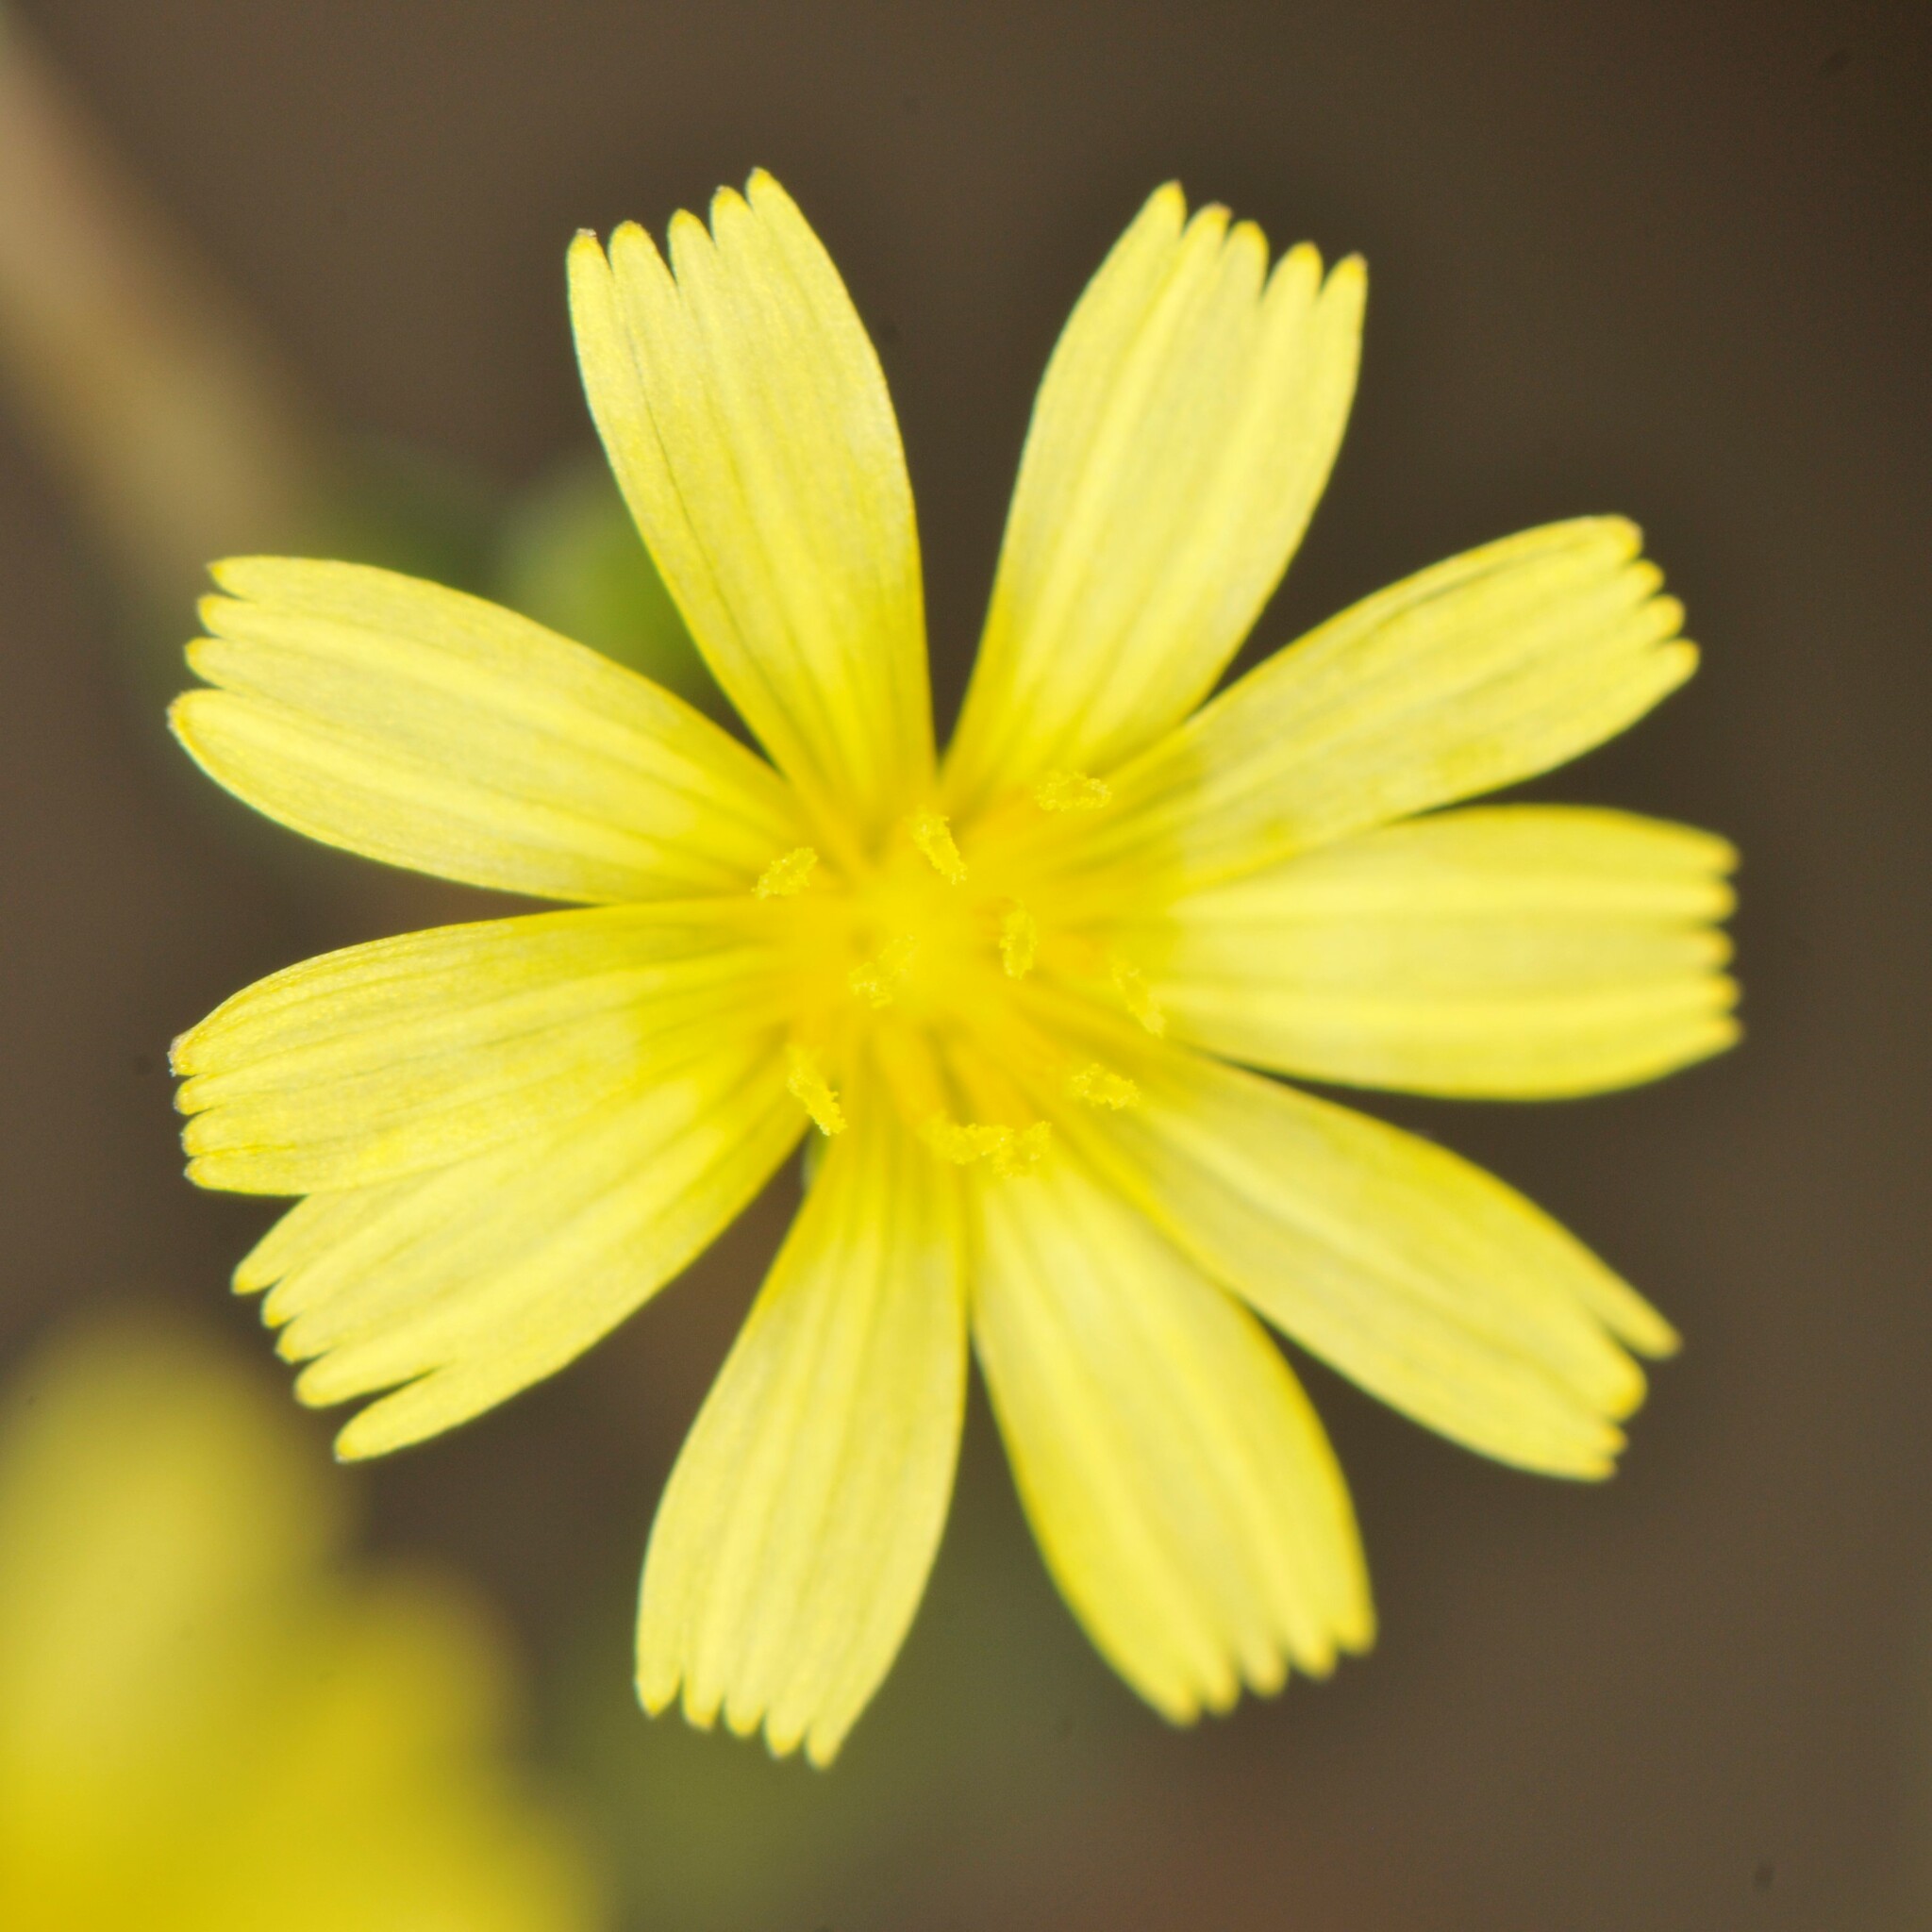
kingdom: Plantae
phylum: Tracheophyta
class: Magnoliopsida
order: Asterales
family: Asteraceae
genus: Lactuca
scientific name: Lactuca serriola
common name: Prickly lettuce
